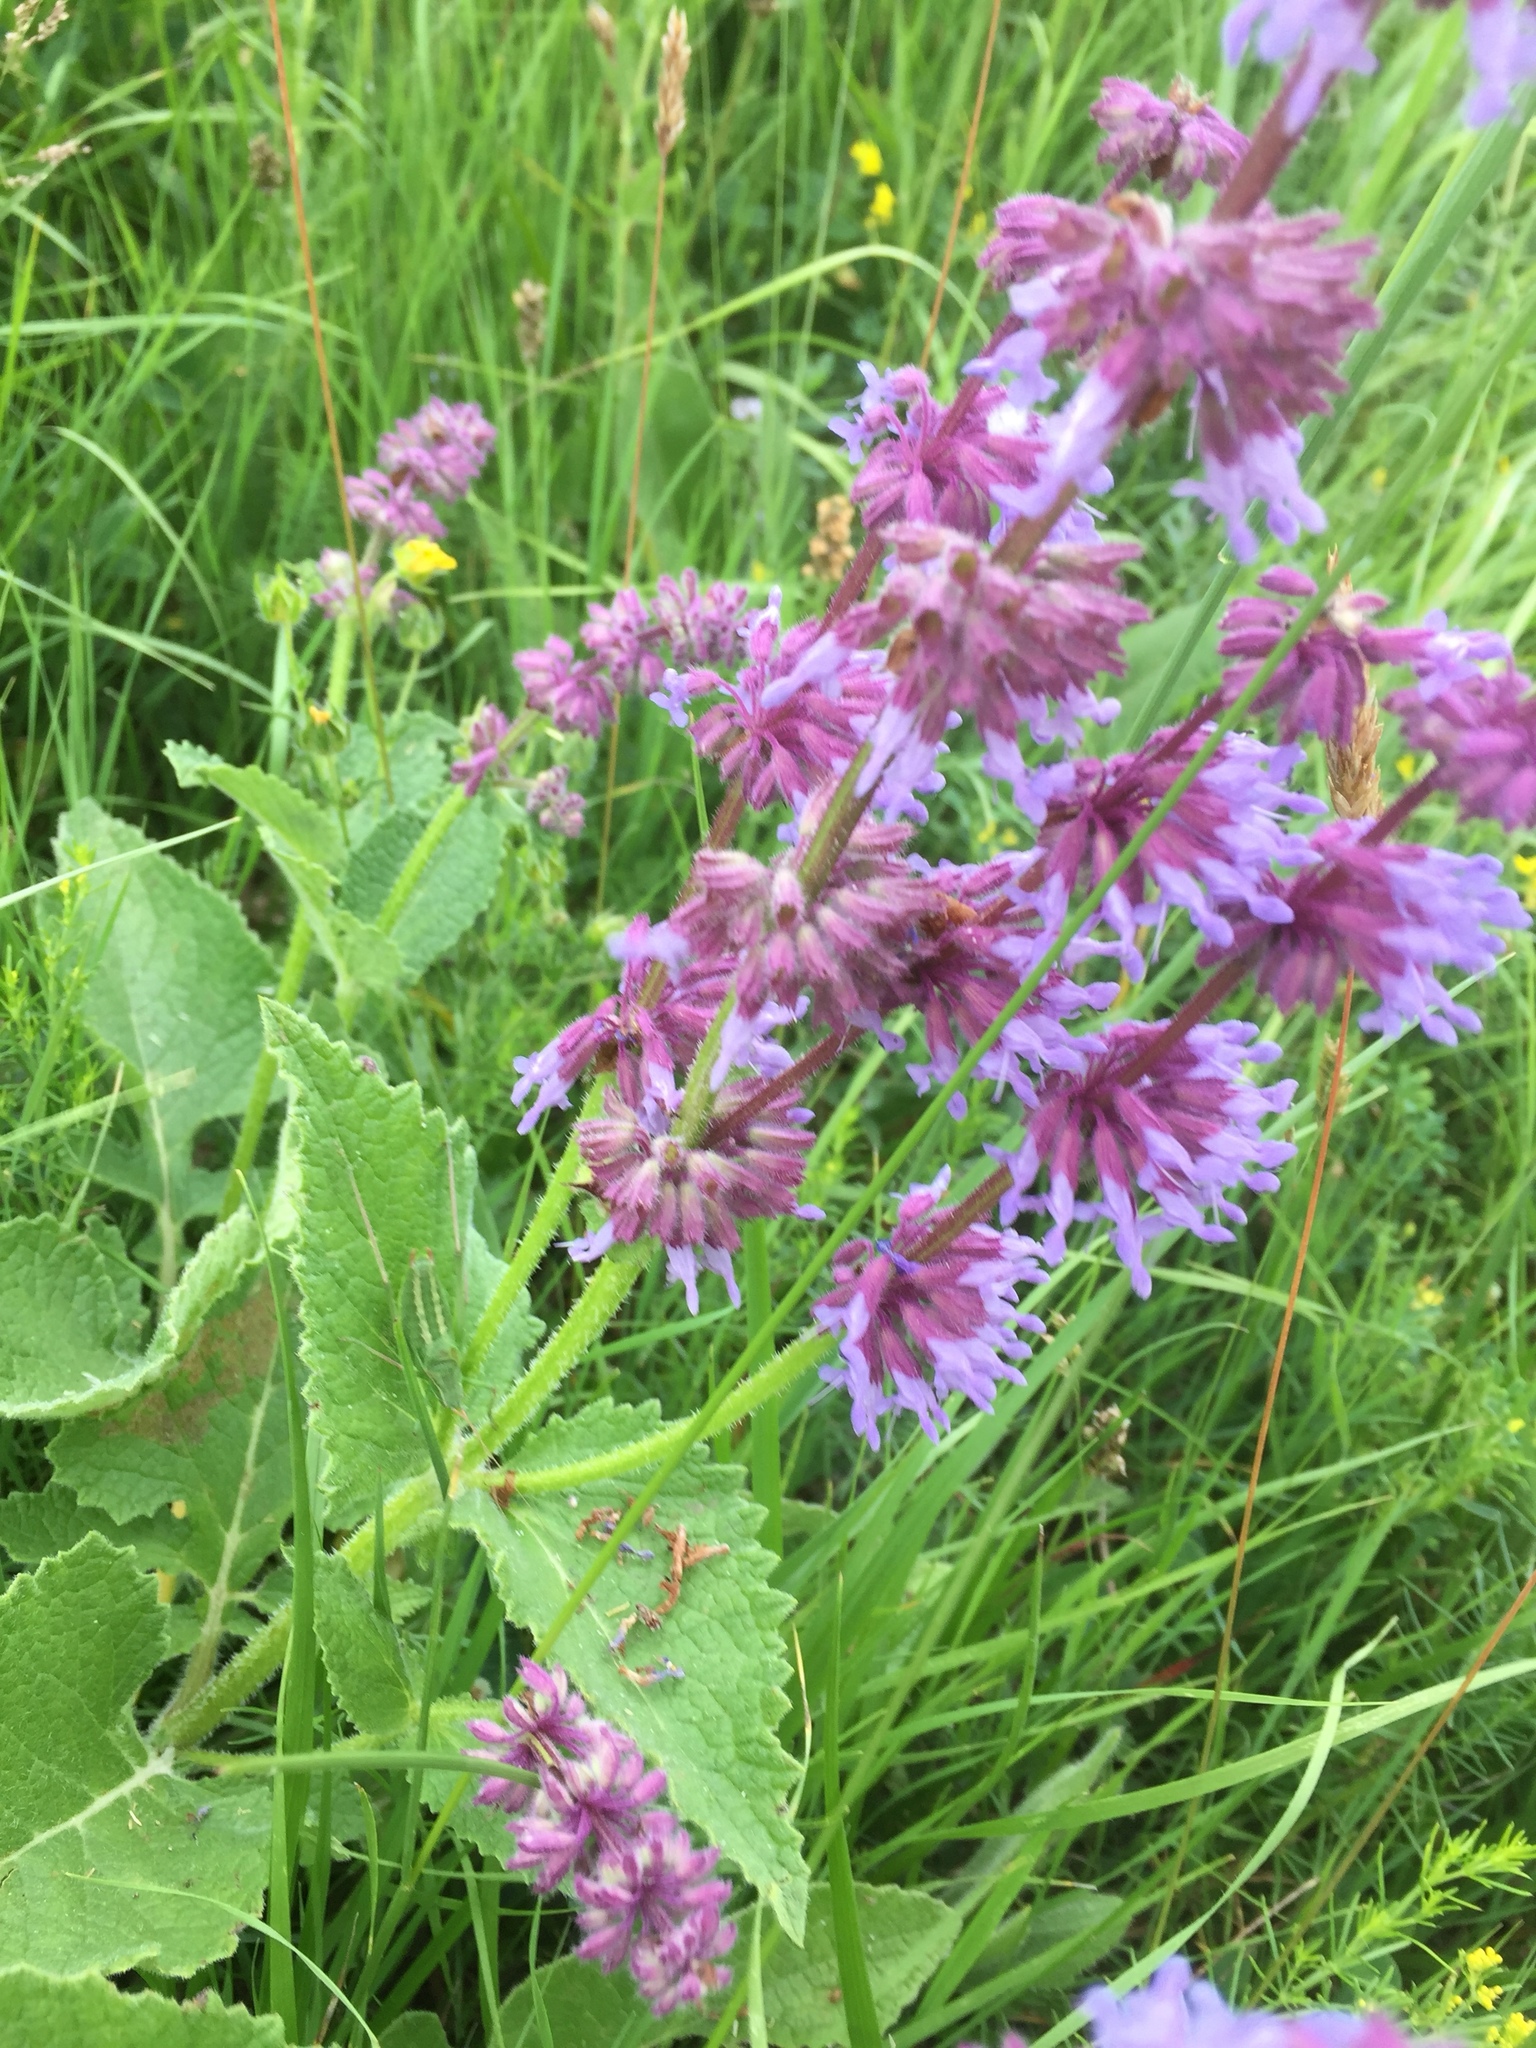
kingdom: Plantae
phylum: Tracheophyta
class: Magnoliopsida
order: Lamiales
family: Lamiaceae
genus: Salvia
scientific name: Salvia verticillata
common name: Whorled clary
